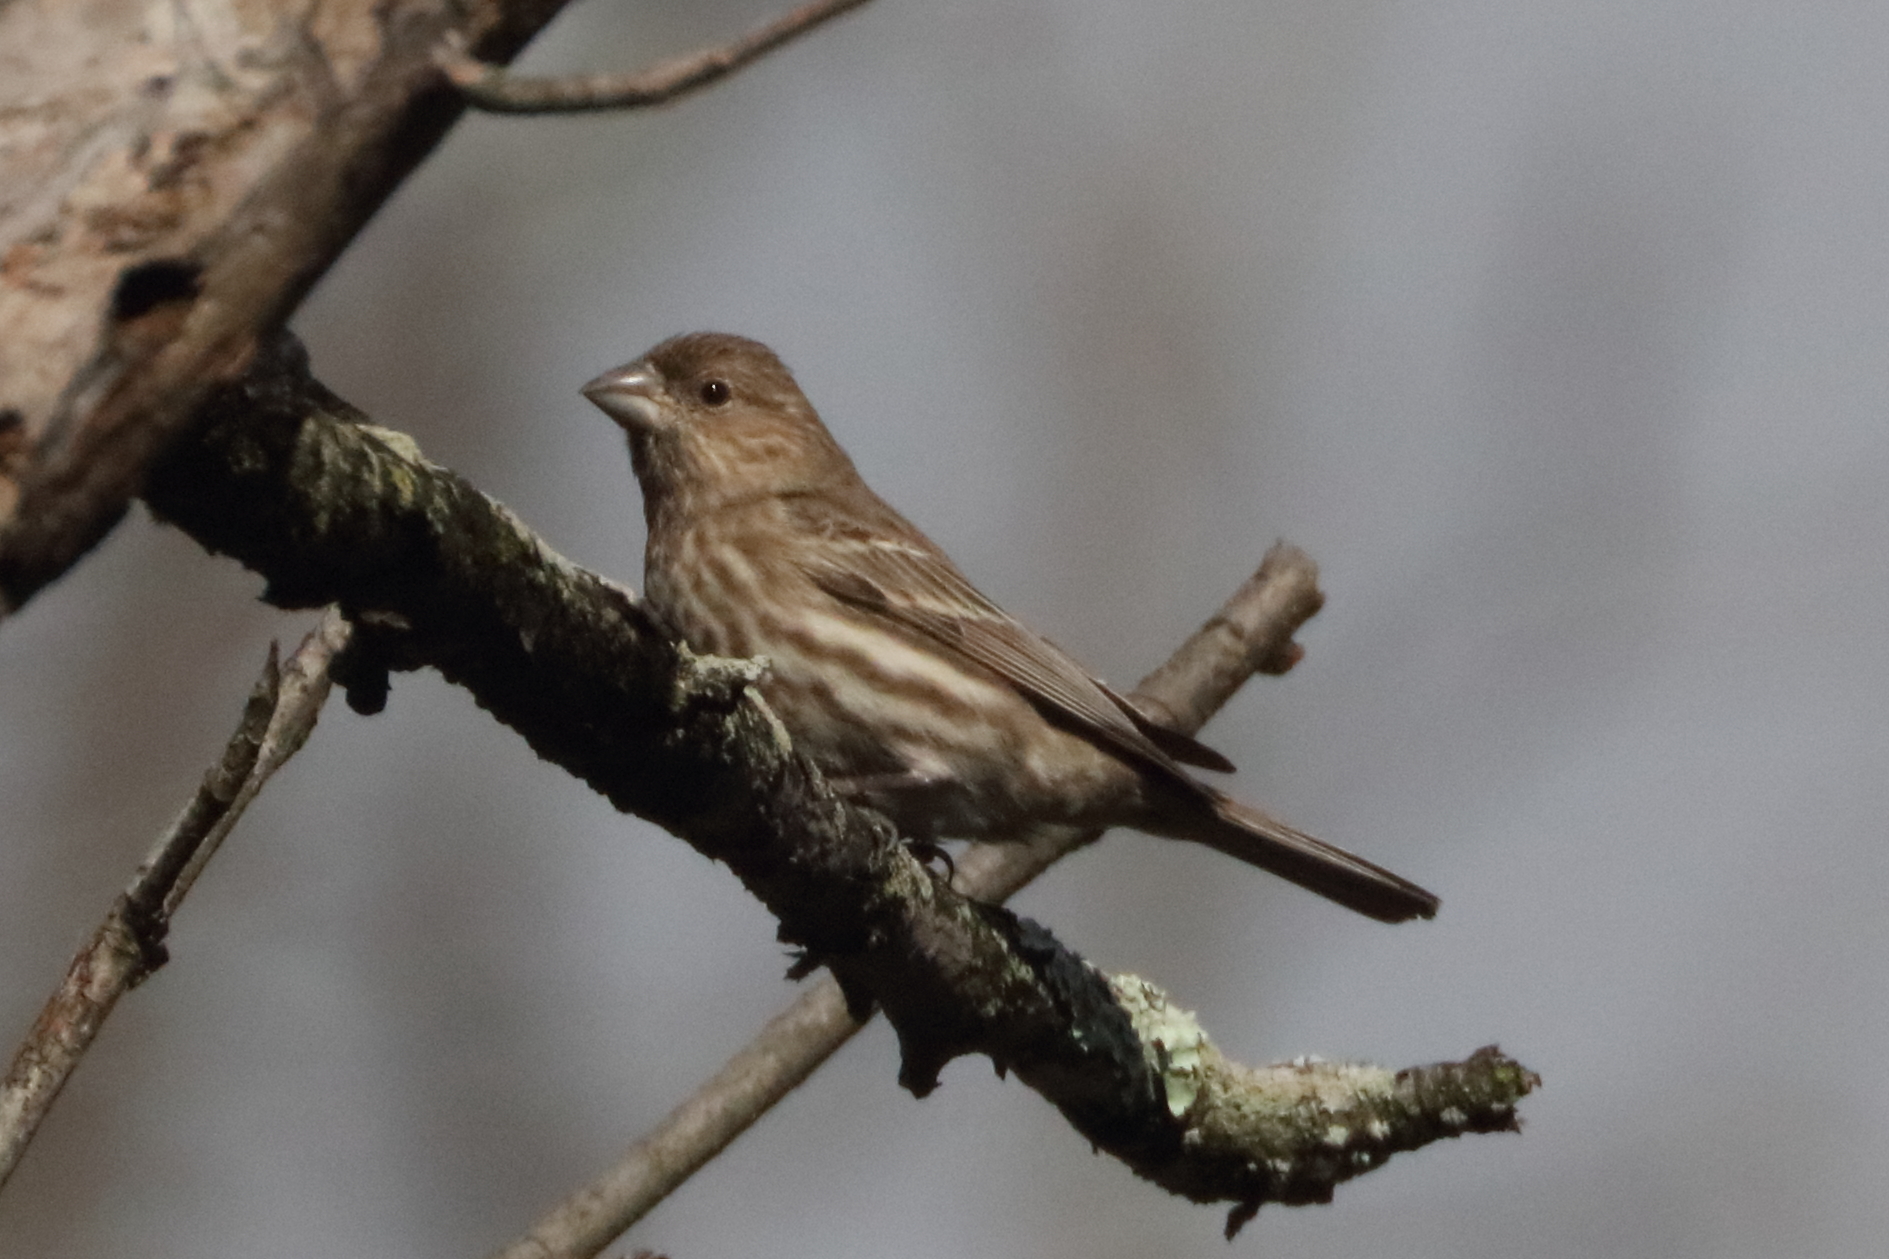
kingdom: Animalia
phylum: Chordata
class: Aves
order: Passeriformes
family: Fringillidae
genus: Haemorhous
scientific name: Haemorhous mexicanus
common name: House finch
